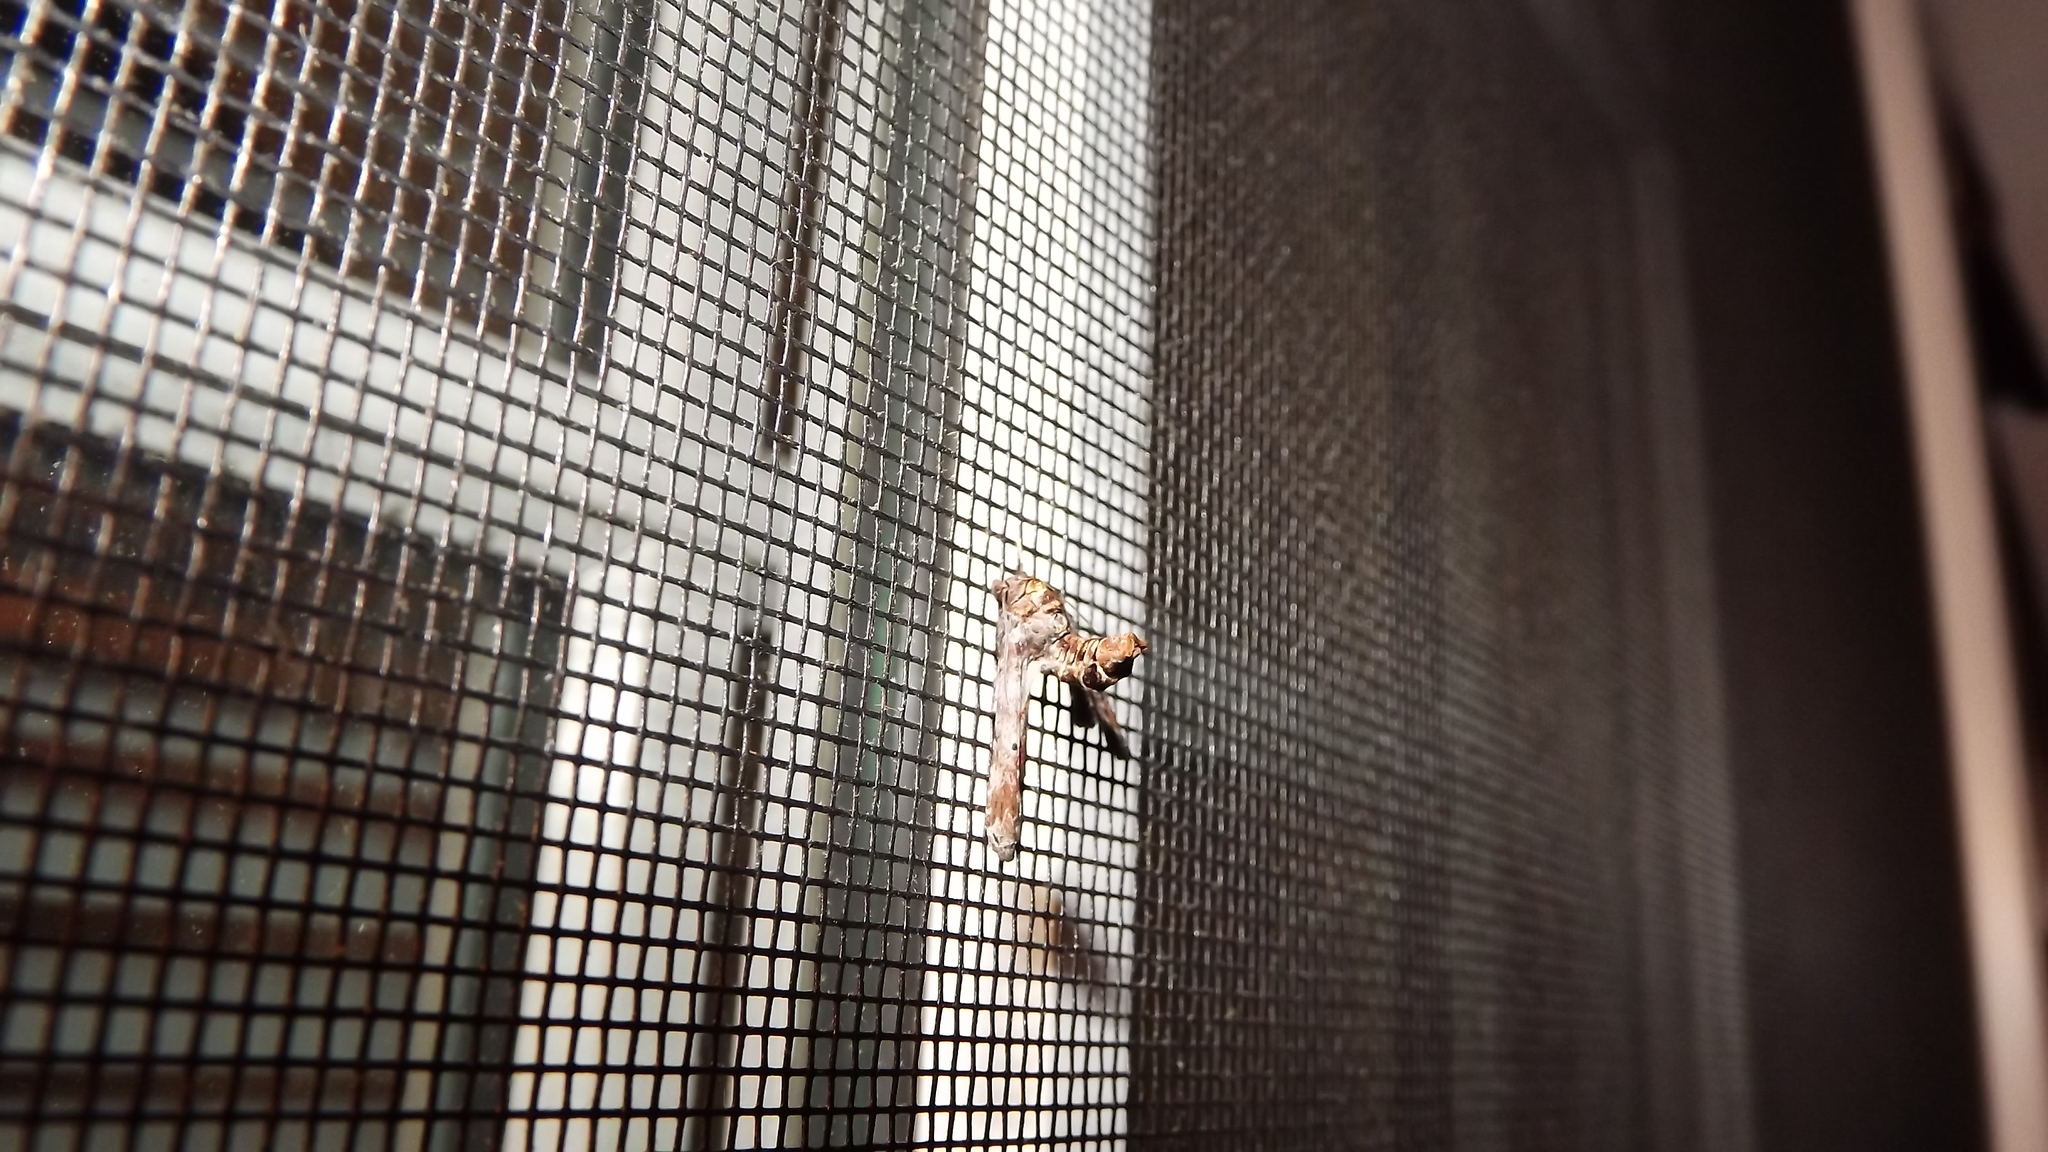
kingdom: Animalia
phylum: Arthropoda
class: Insecta
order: Lepidoptera
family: Euteliidae
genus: Marathyssa
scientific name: Marathyssa inficita
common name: Dark marathyssa moth
